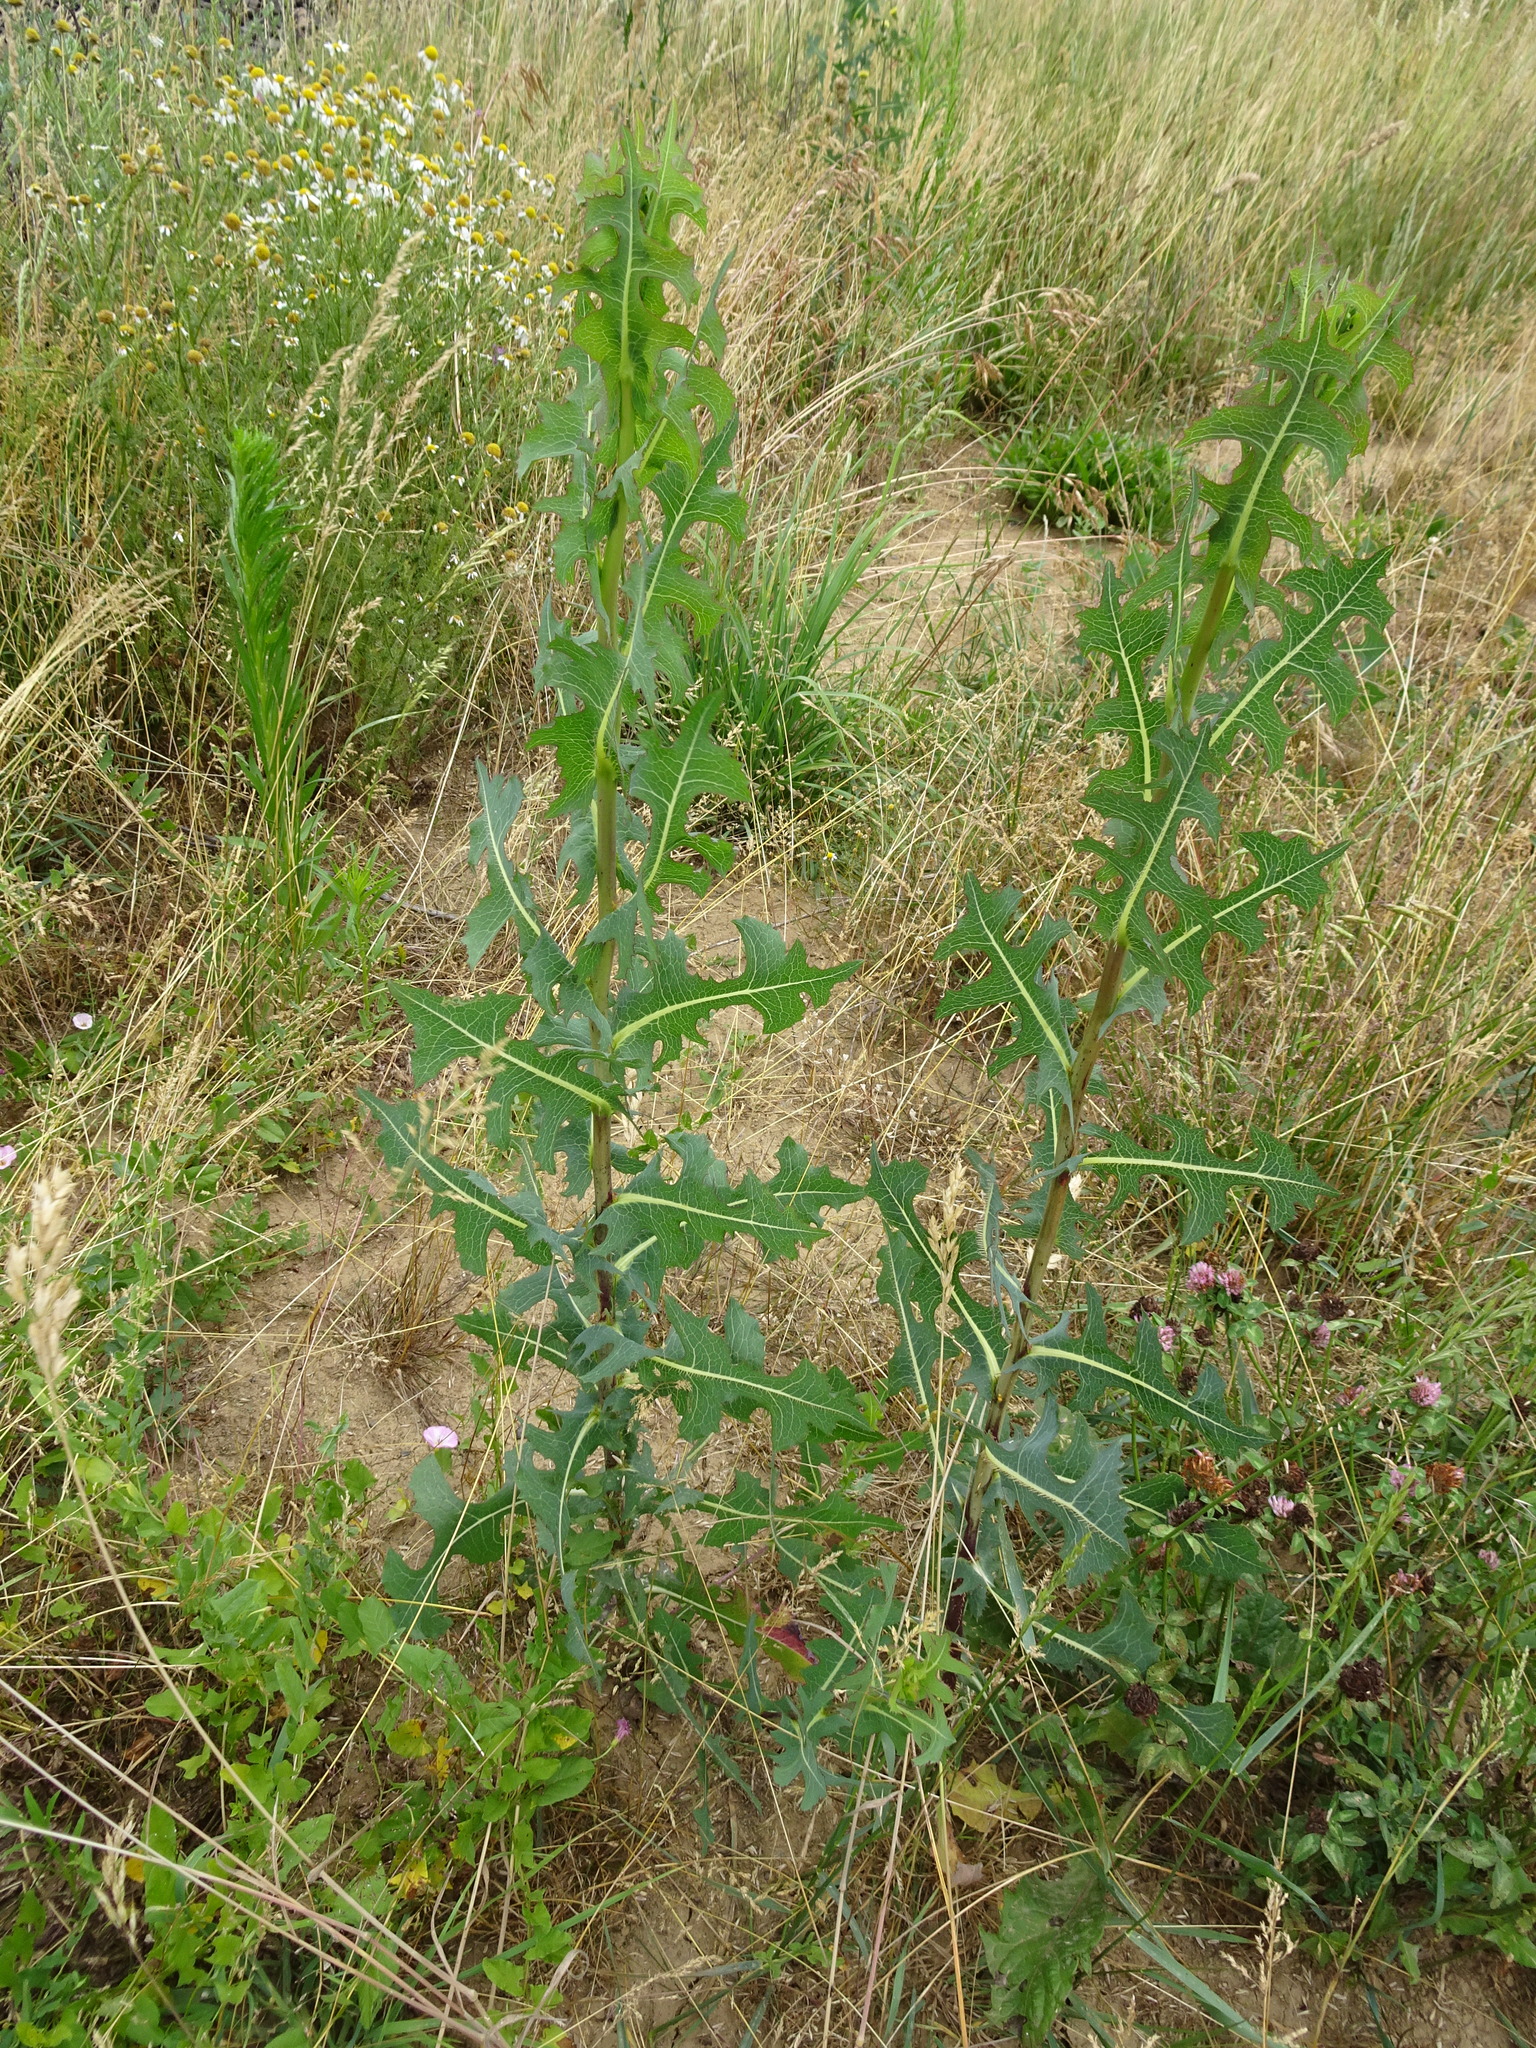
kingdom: Plantae
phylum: Tracheophyta
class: Magnoliopsida
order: Asterales
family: Asteraceae
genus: Lactuca
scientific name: Lactuca serriola
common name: Prickly lettuce
